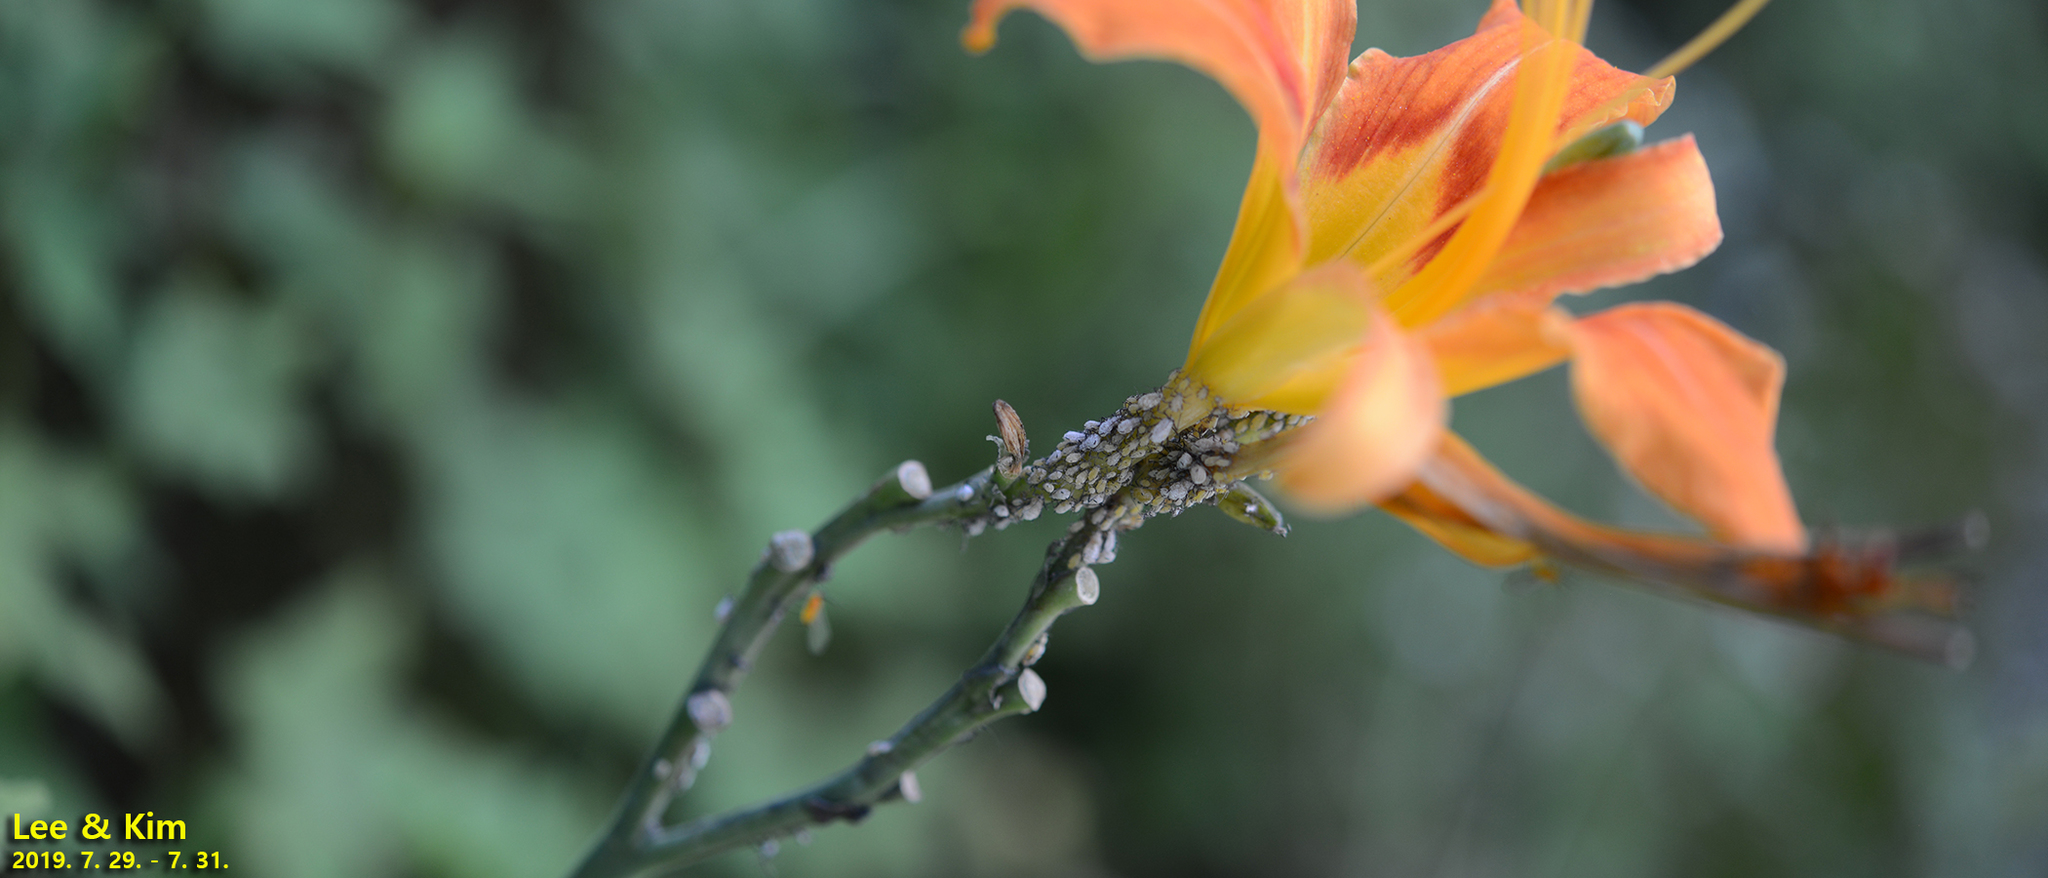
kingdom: Animalia
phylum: Arthropoda
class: Insecta
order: Hemiptera
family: Aphididae
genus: Indomegoura
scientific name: Indomegoura indica
